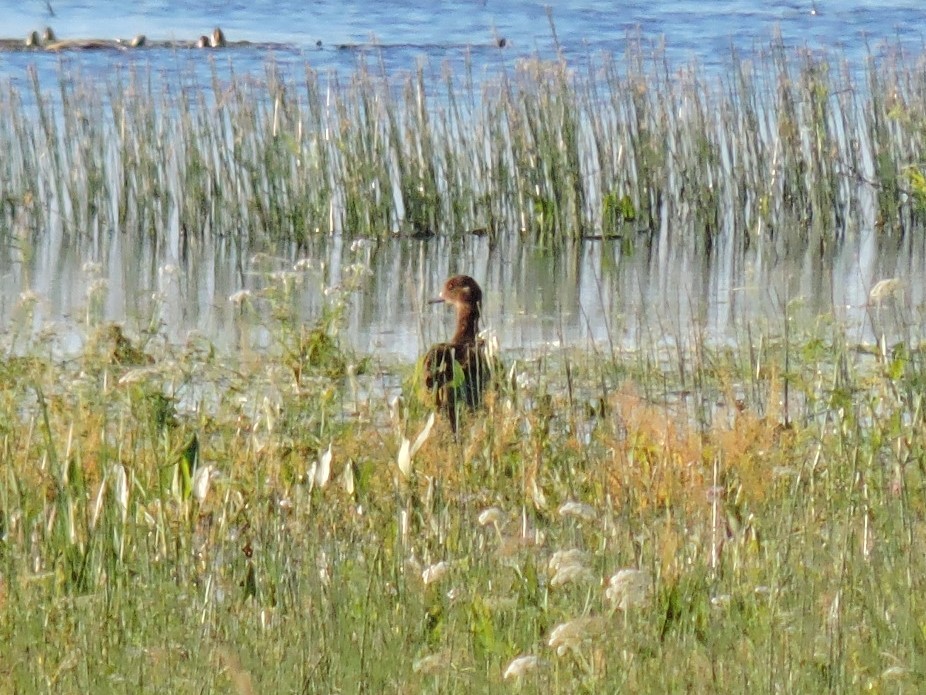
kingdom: Animalia
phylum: Chordata
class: Aves
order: Anseriformes
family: Anatidae
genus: Mareca
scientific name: Mareca penelope
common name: Eurasian wigeon
